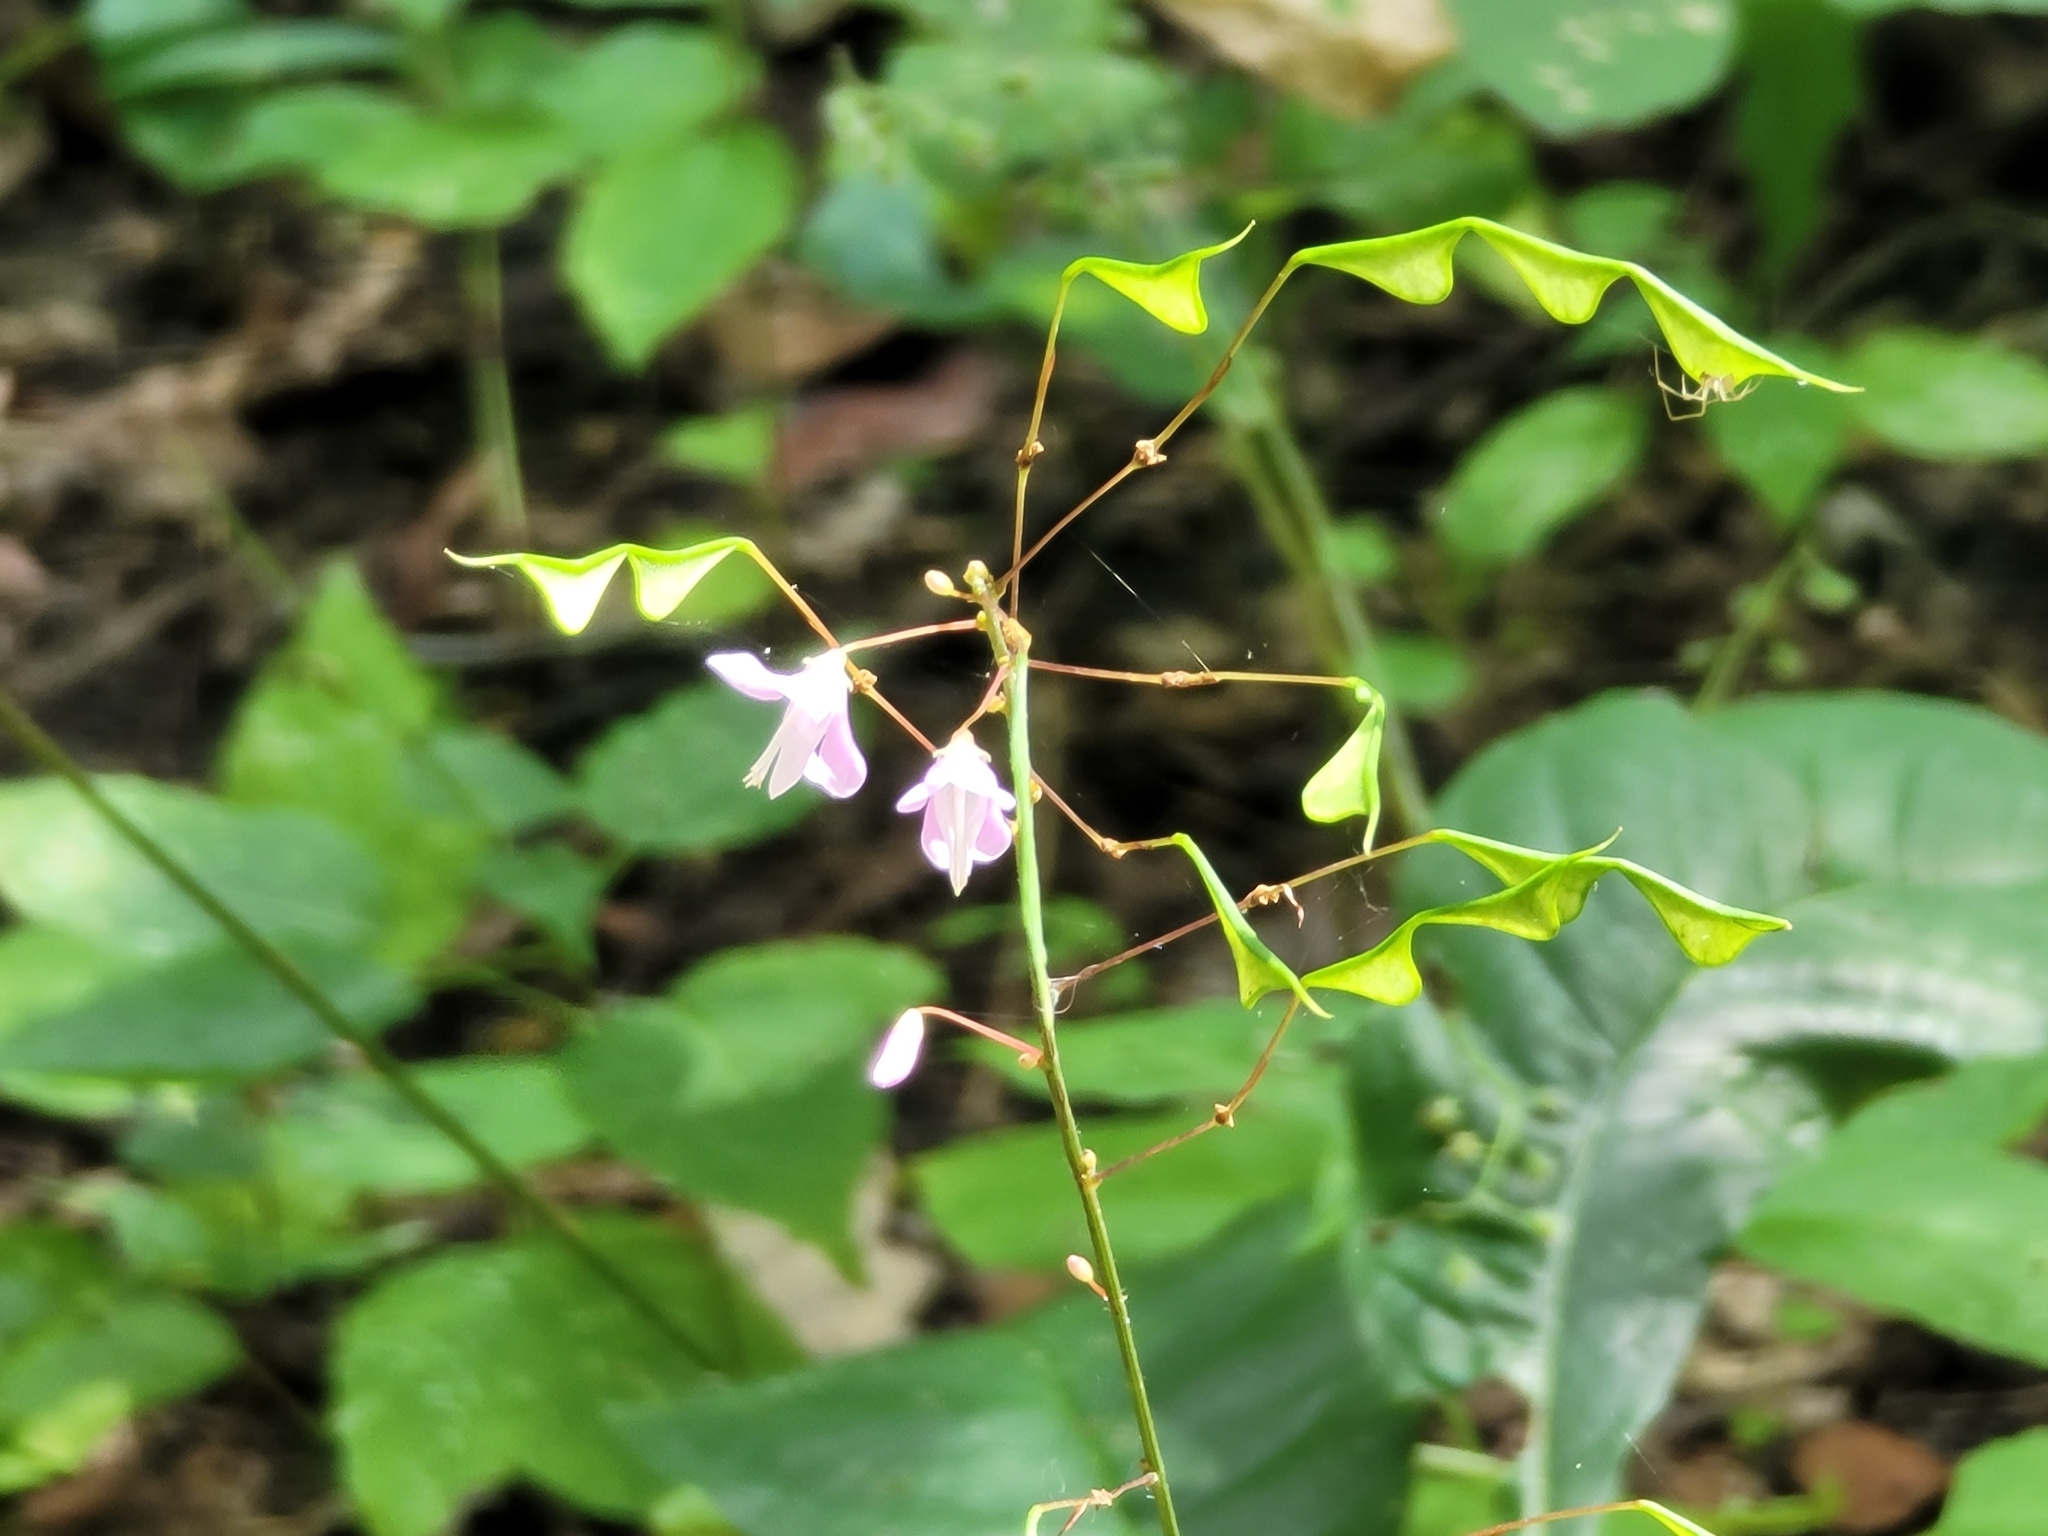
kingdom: Plantae
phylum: Tracheophyta
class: Magnoliopsida
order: Fabales
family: Fabaceae
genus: Hylodesmum
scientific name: Hylodesmum nudiflorum
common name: Bare-stemmed tick-trefoil
